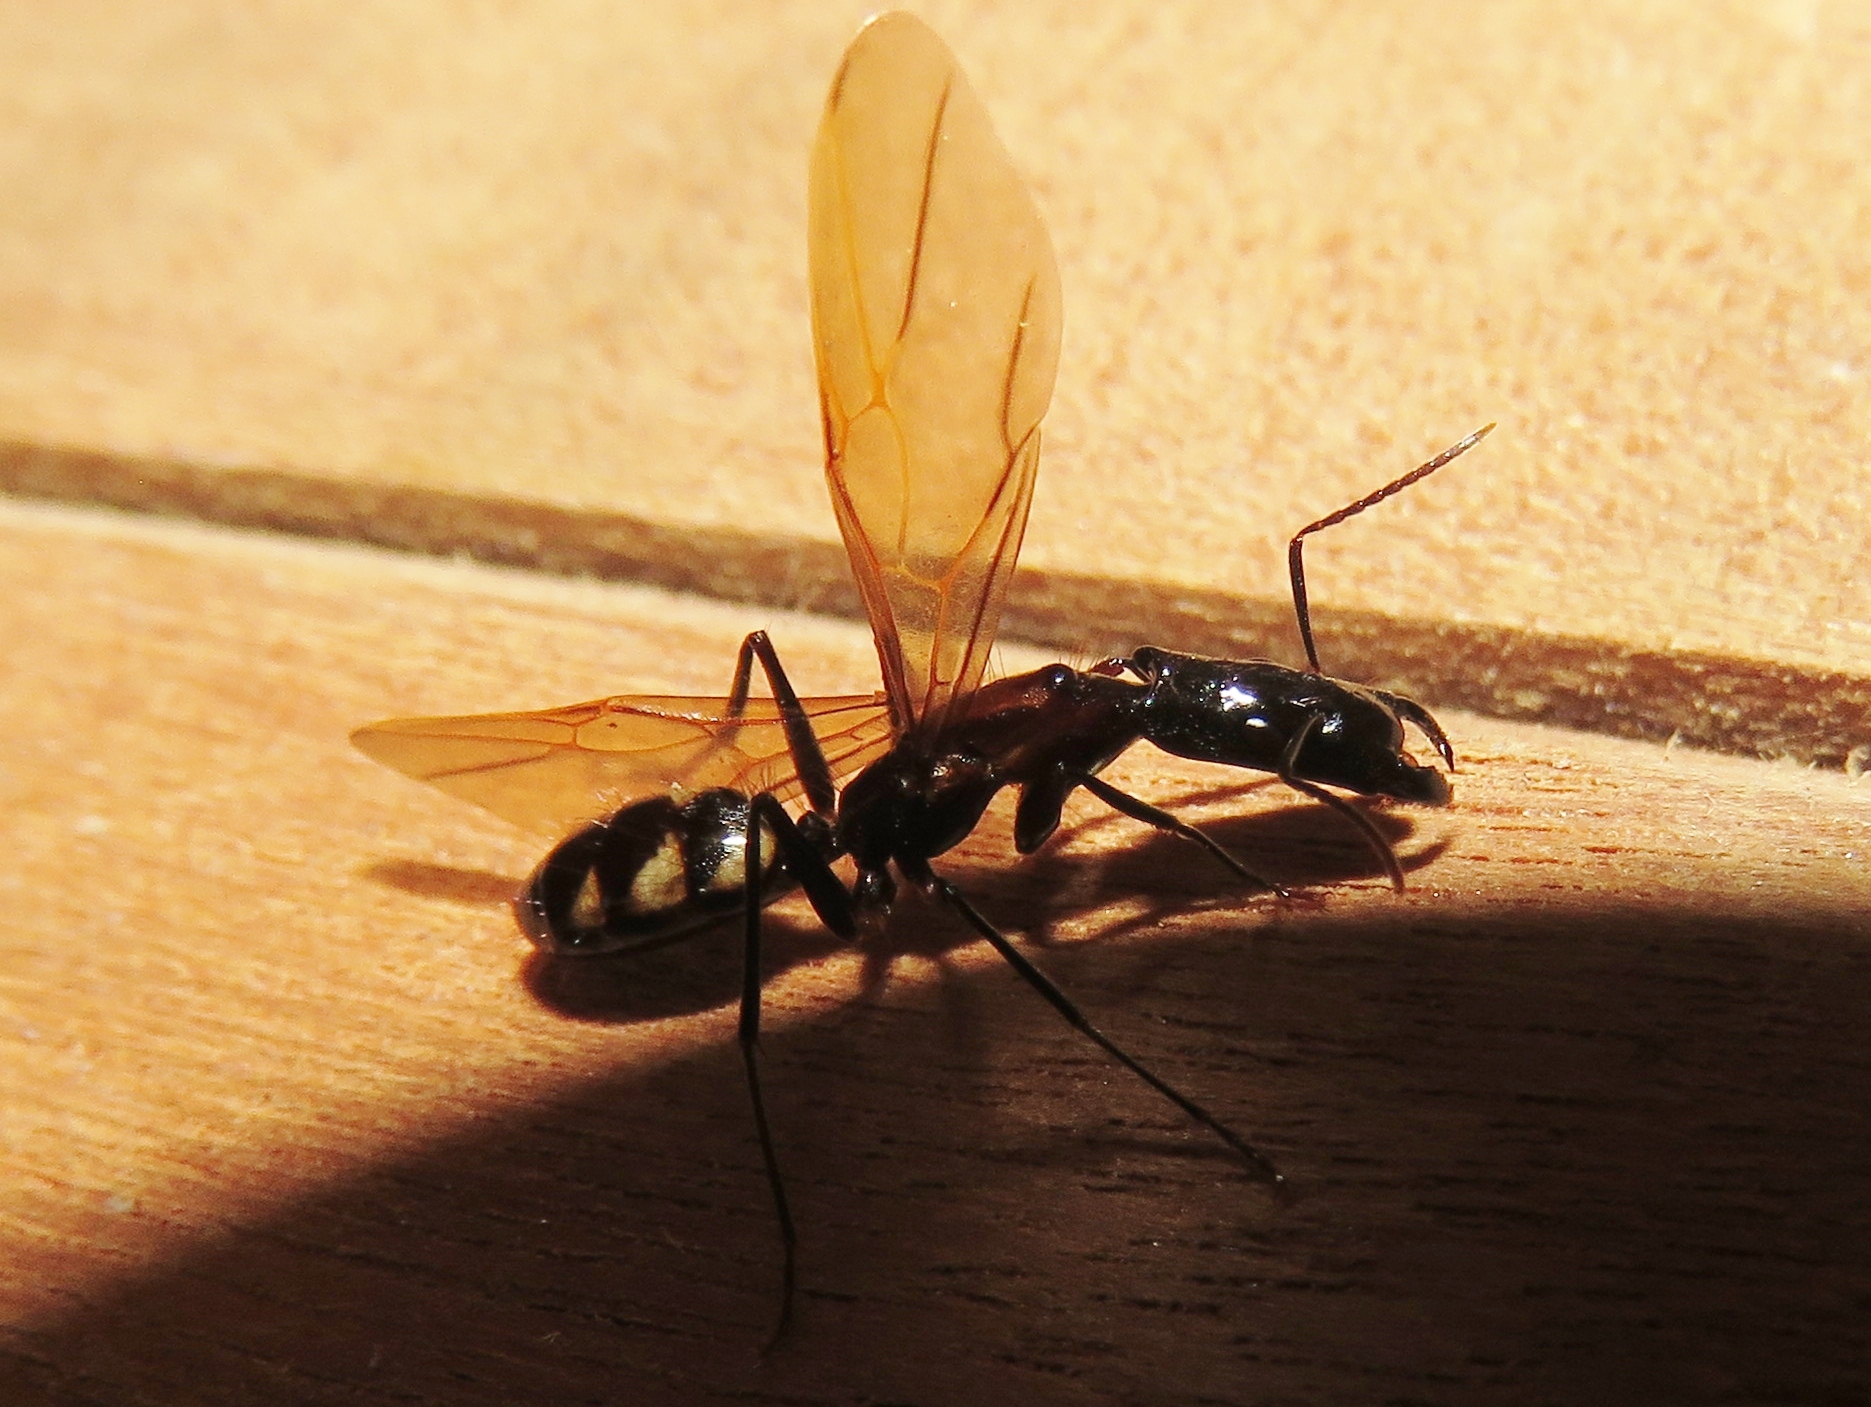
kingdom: Animalia
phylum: Arthropoda
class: Insecta
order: Hymenoptera
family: Formicidae
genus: Camponotus
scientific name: Camponotus mirabilis
